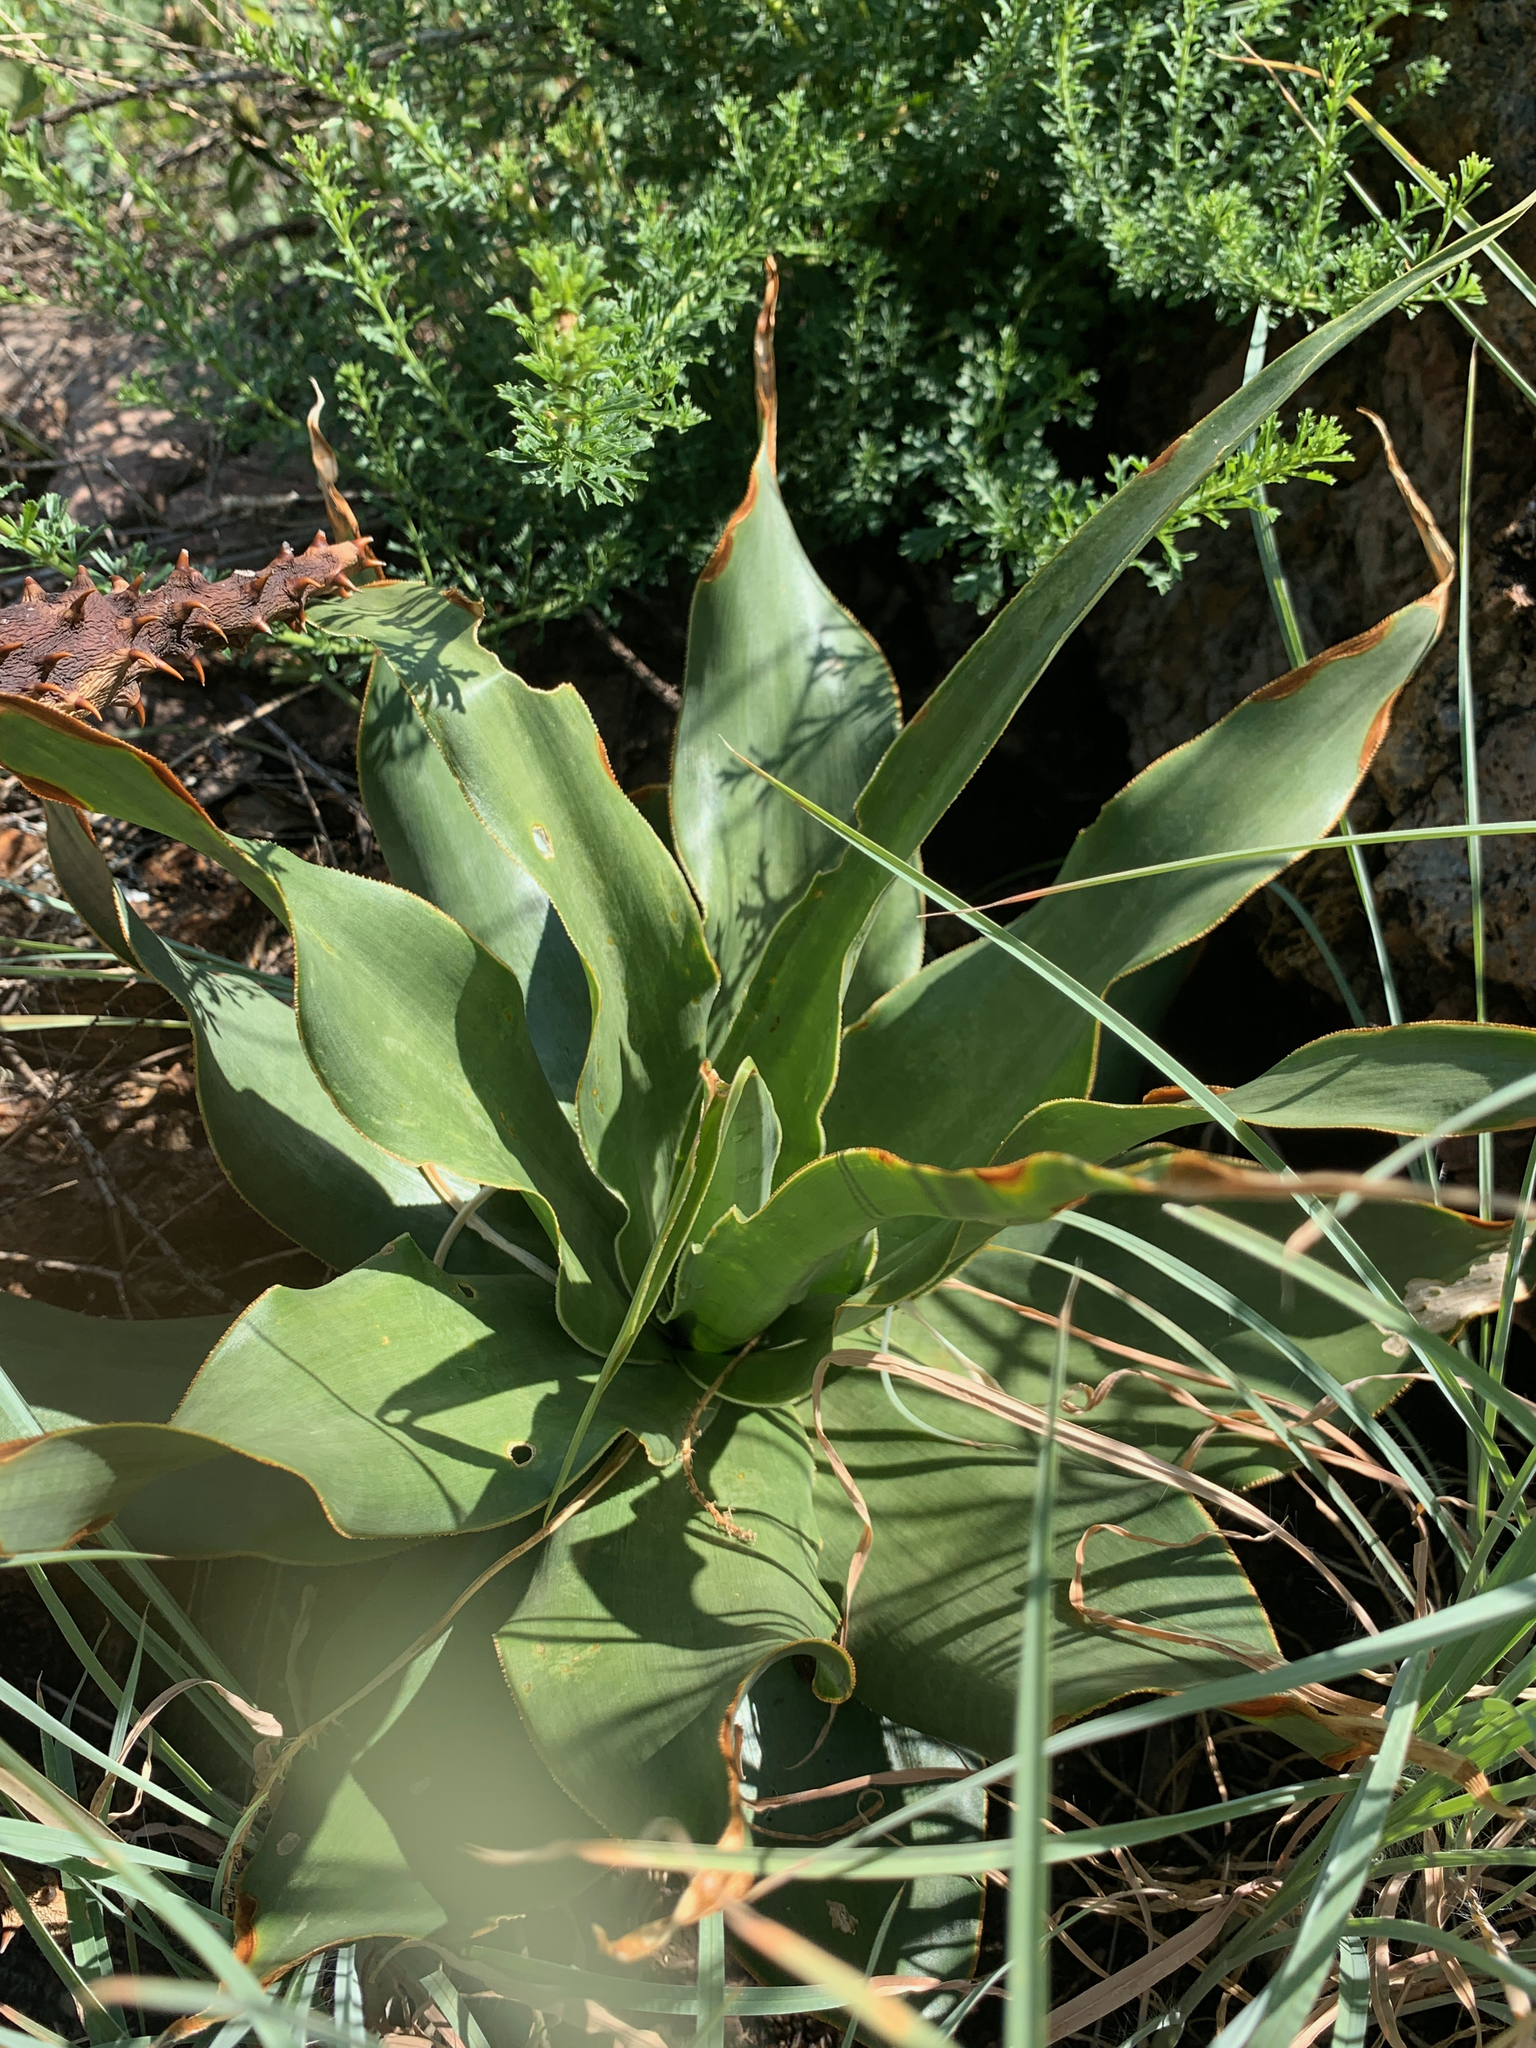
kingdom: Plantae
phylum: Tracheophyta
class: Liliopsida
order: Asparagales
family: Asparagaceae
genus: Ledebouria
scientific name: Ledebouria marginata
